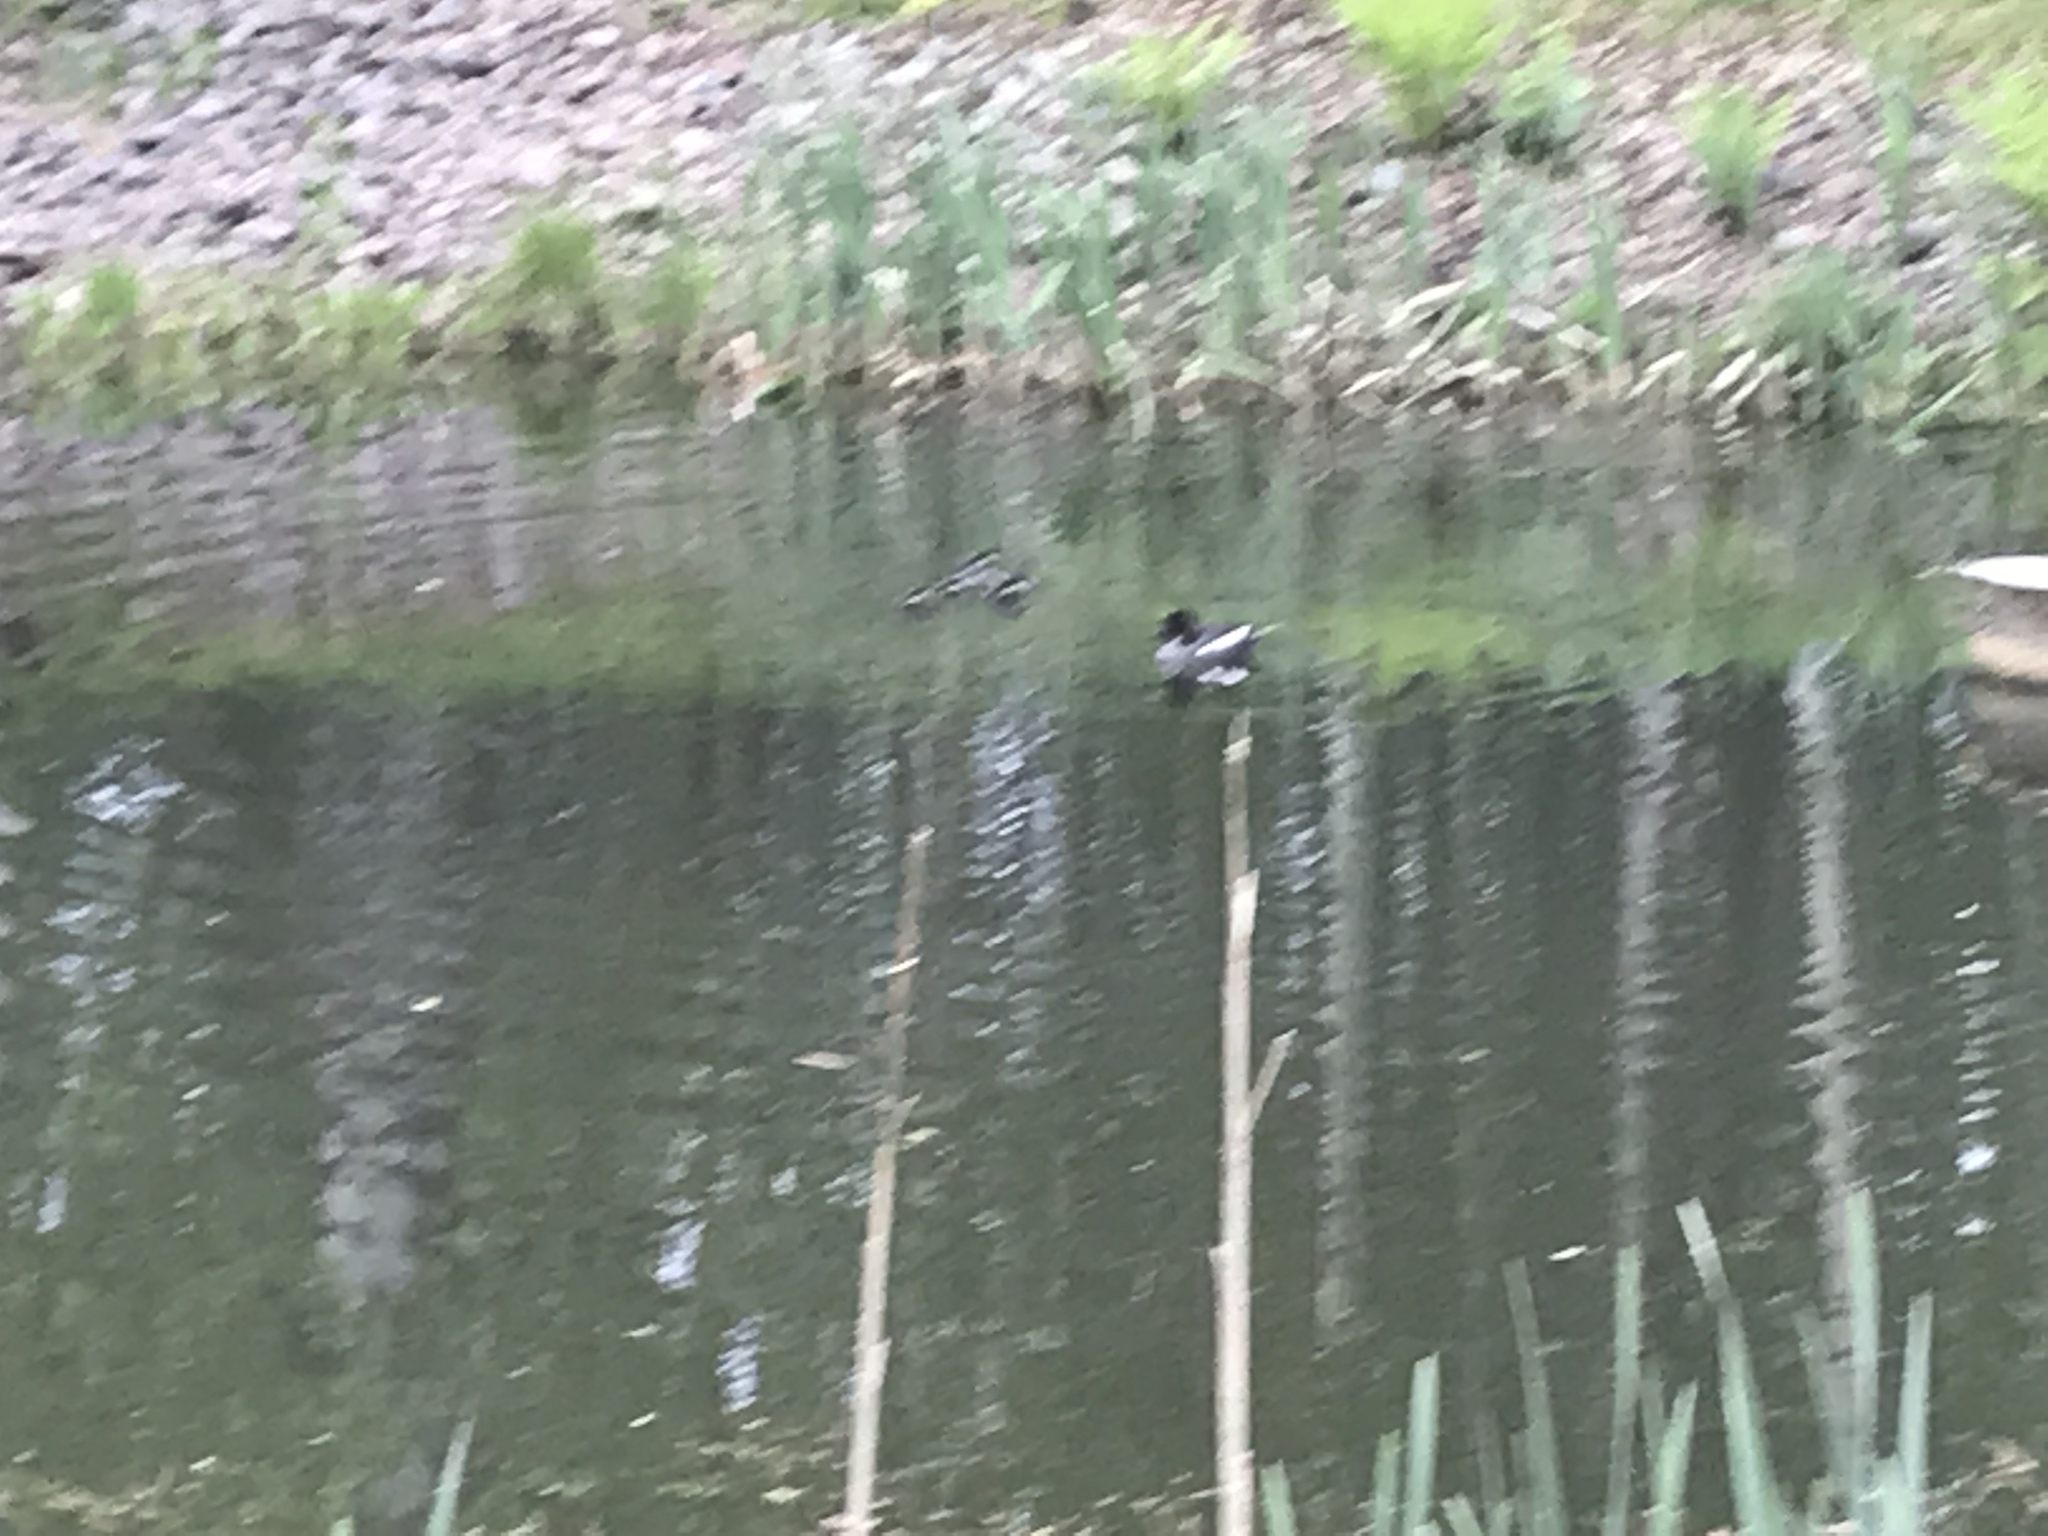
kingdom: Animalia
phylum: Chordata
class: Aves
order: Anseriformes
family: Anatidae
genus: Bucephala
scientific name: Bucephala clangula
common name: Common goldeneye
